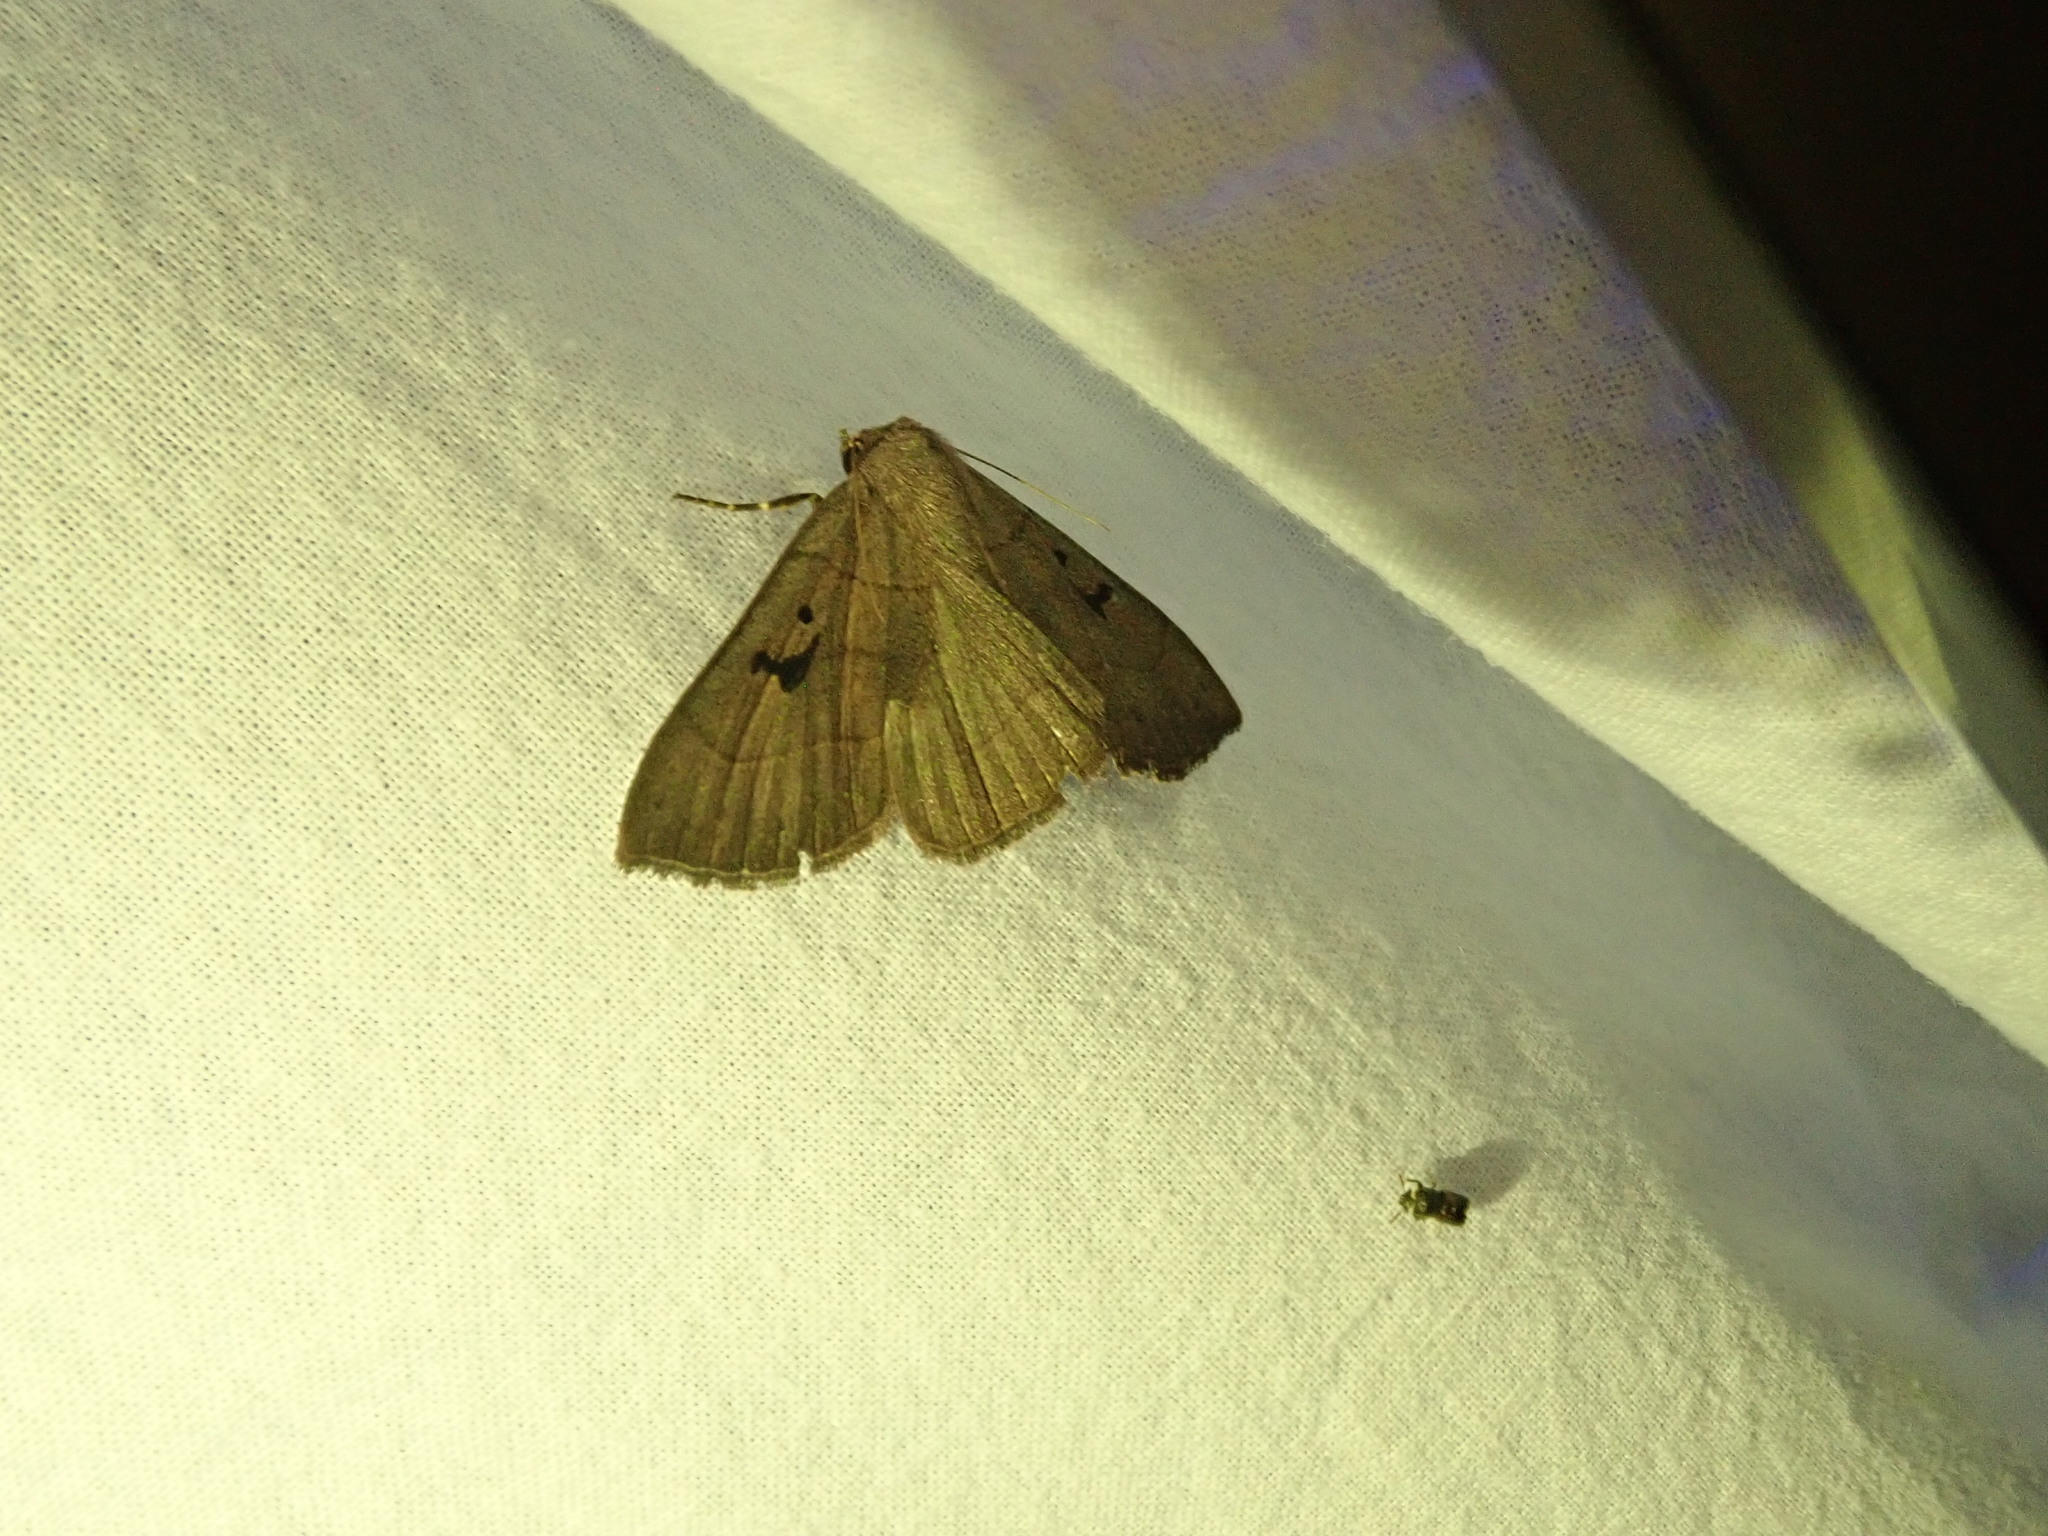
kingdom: Animalia
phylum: Arthropoda
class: Insecta
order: Lepidoptera
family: Erebidae
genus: Panopoda
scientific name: Panopoda carneicosta
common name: Brown panopoda moth
